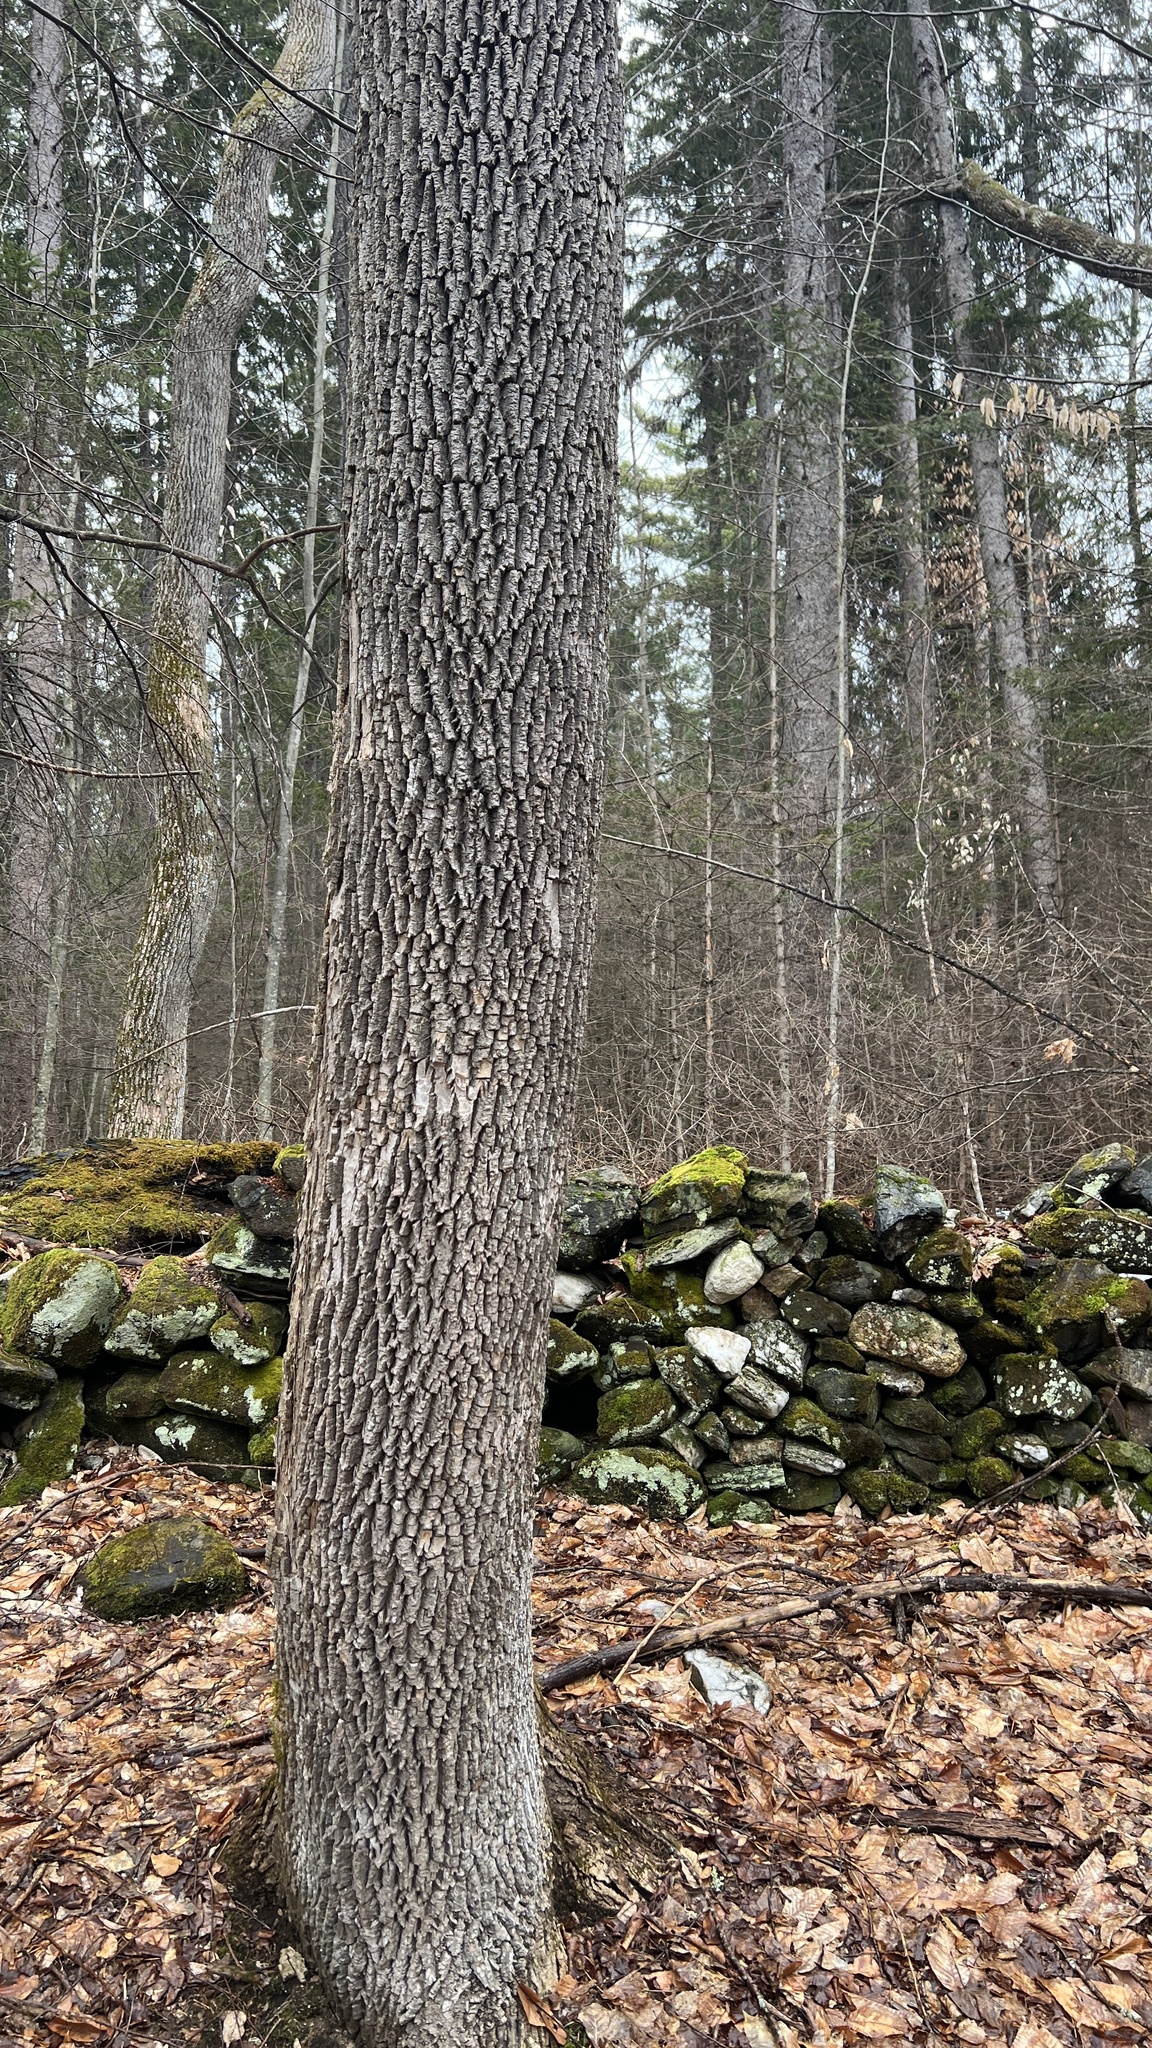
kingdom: Plantae
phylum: Tracheophyta
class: Magnoliopsida
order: Lamiales
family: Oleaceae
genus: Fraxinus
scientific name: Fraxinus americana
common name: White ash
